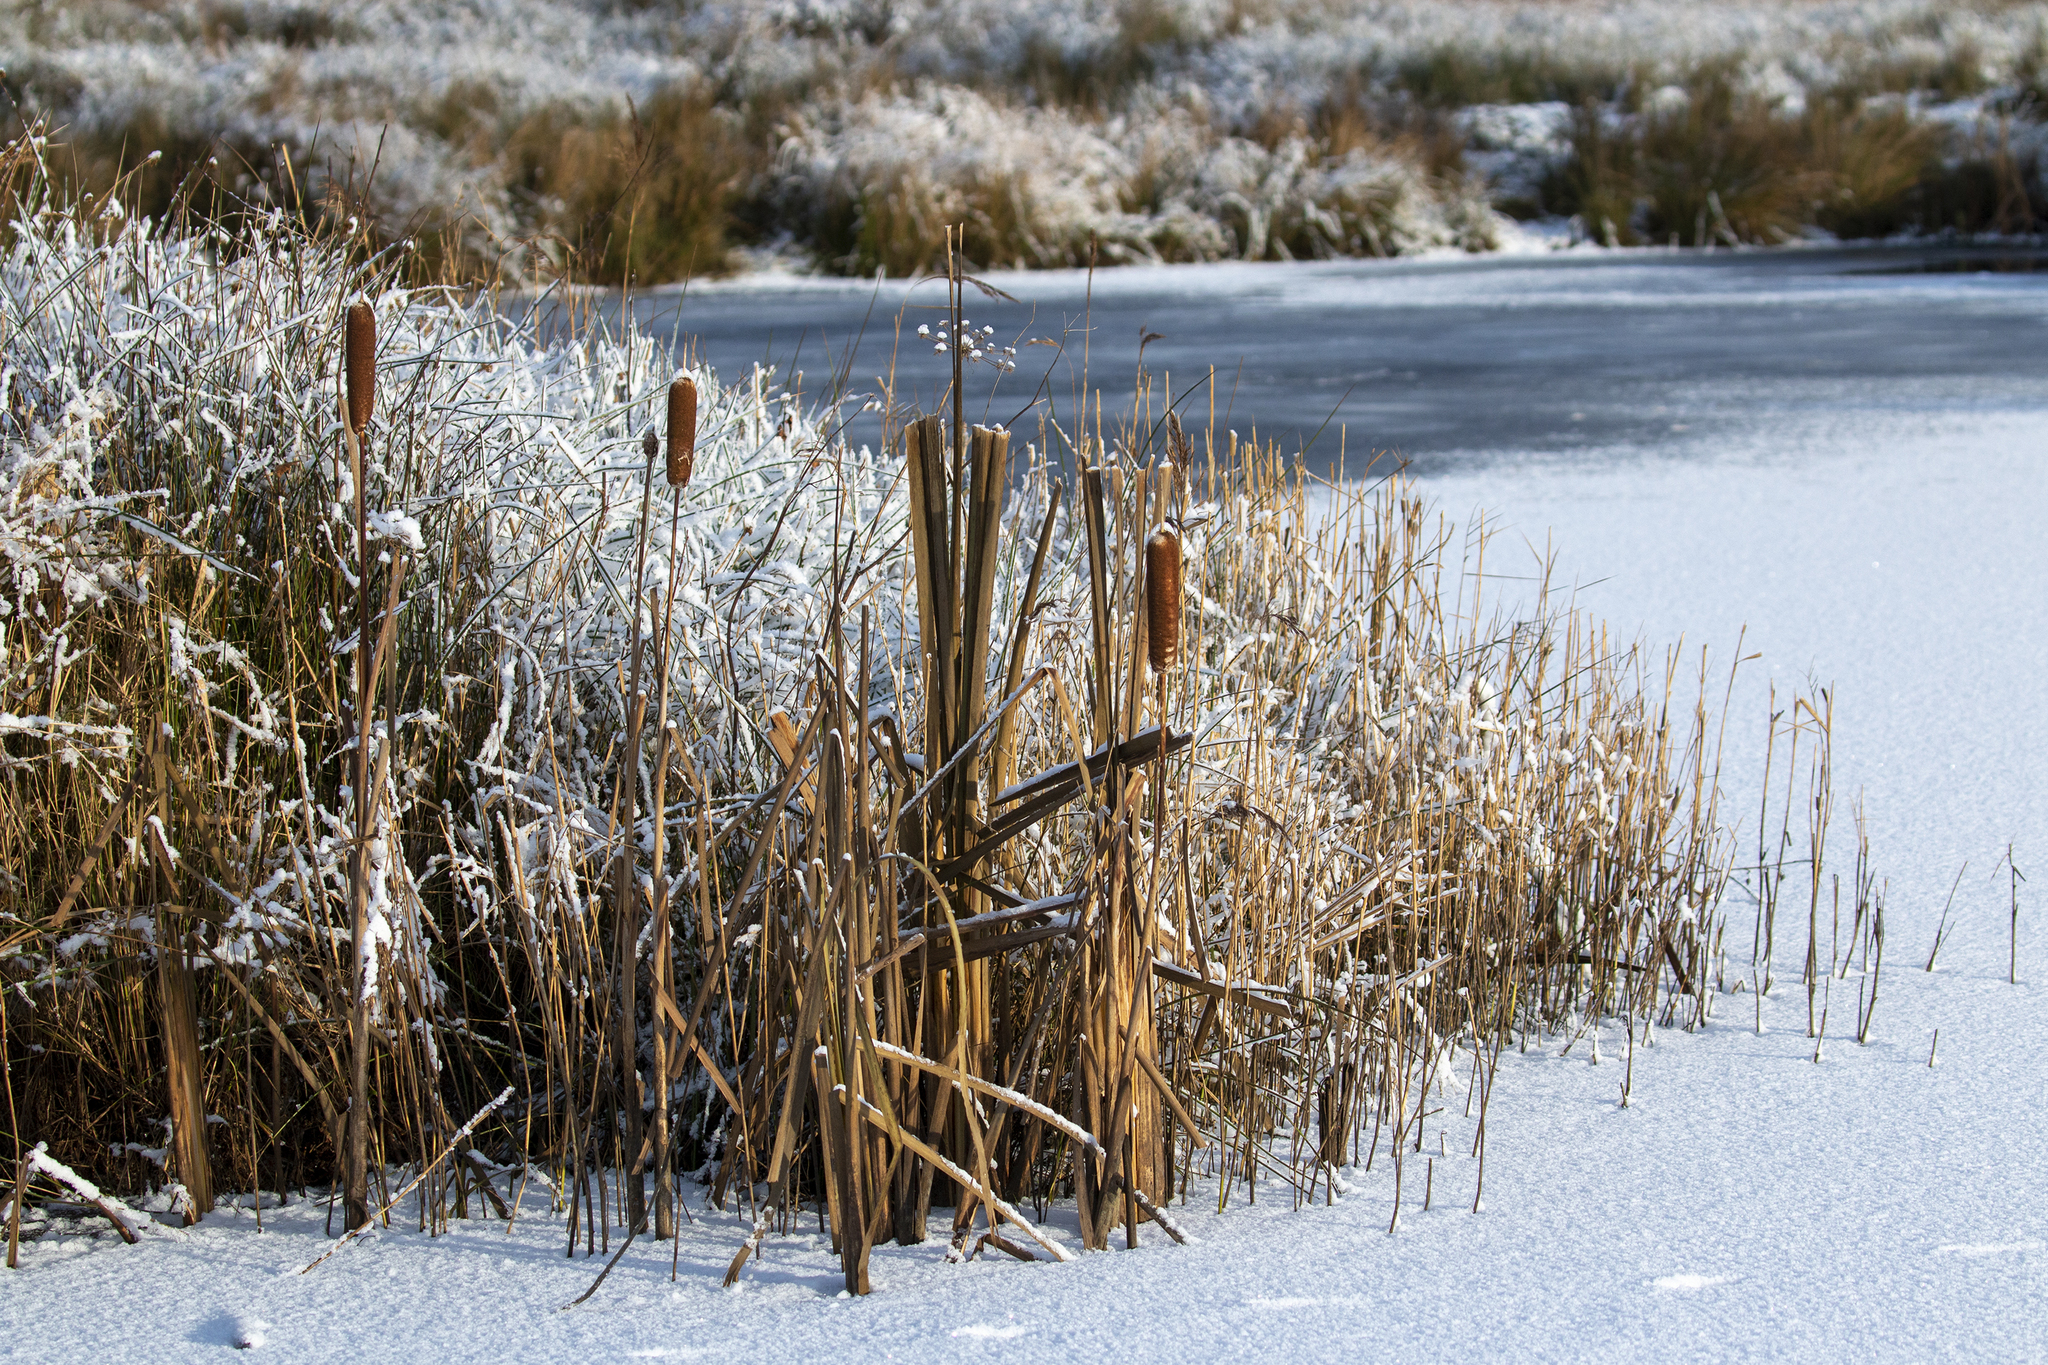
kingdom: Plantae
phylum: Tracheophyta
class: Liliopsida
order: Poales
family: Typhaceae
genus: Typha
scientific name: Typha latifolia
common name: Broadleaf cattail
